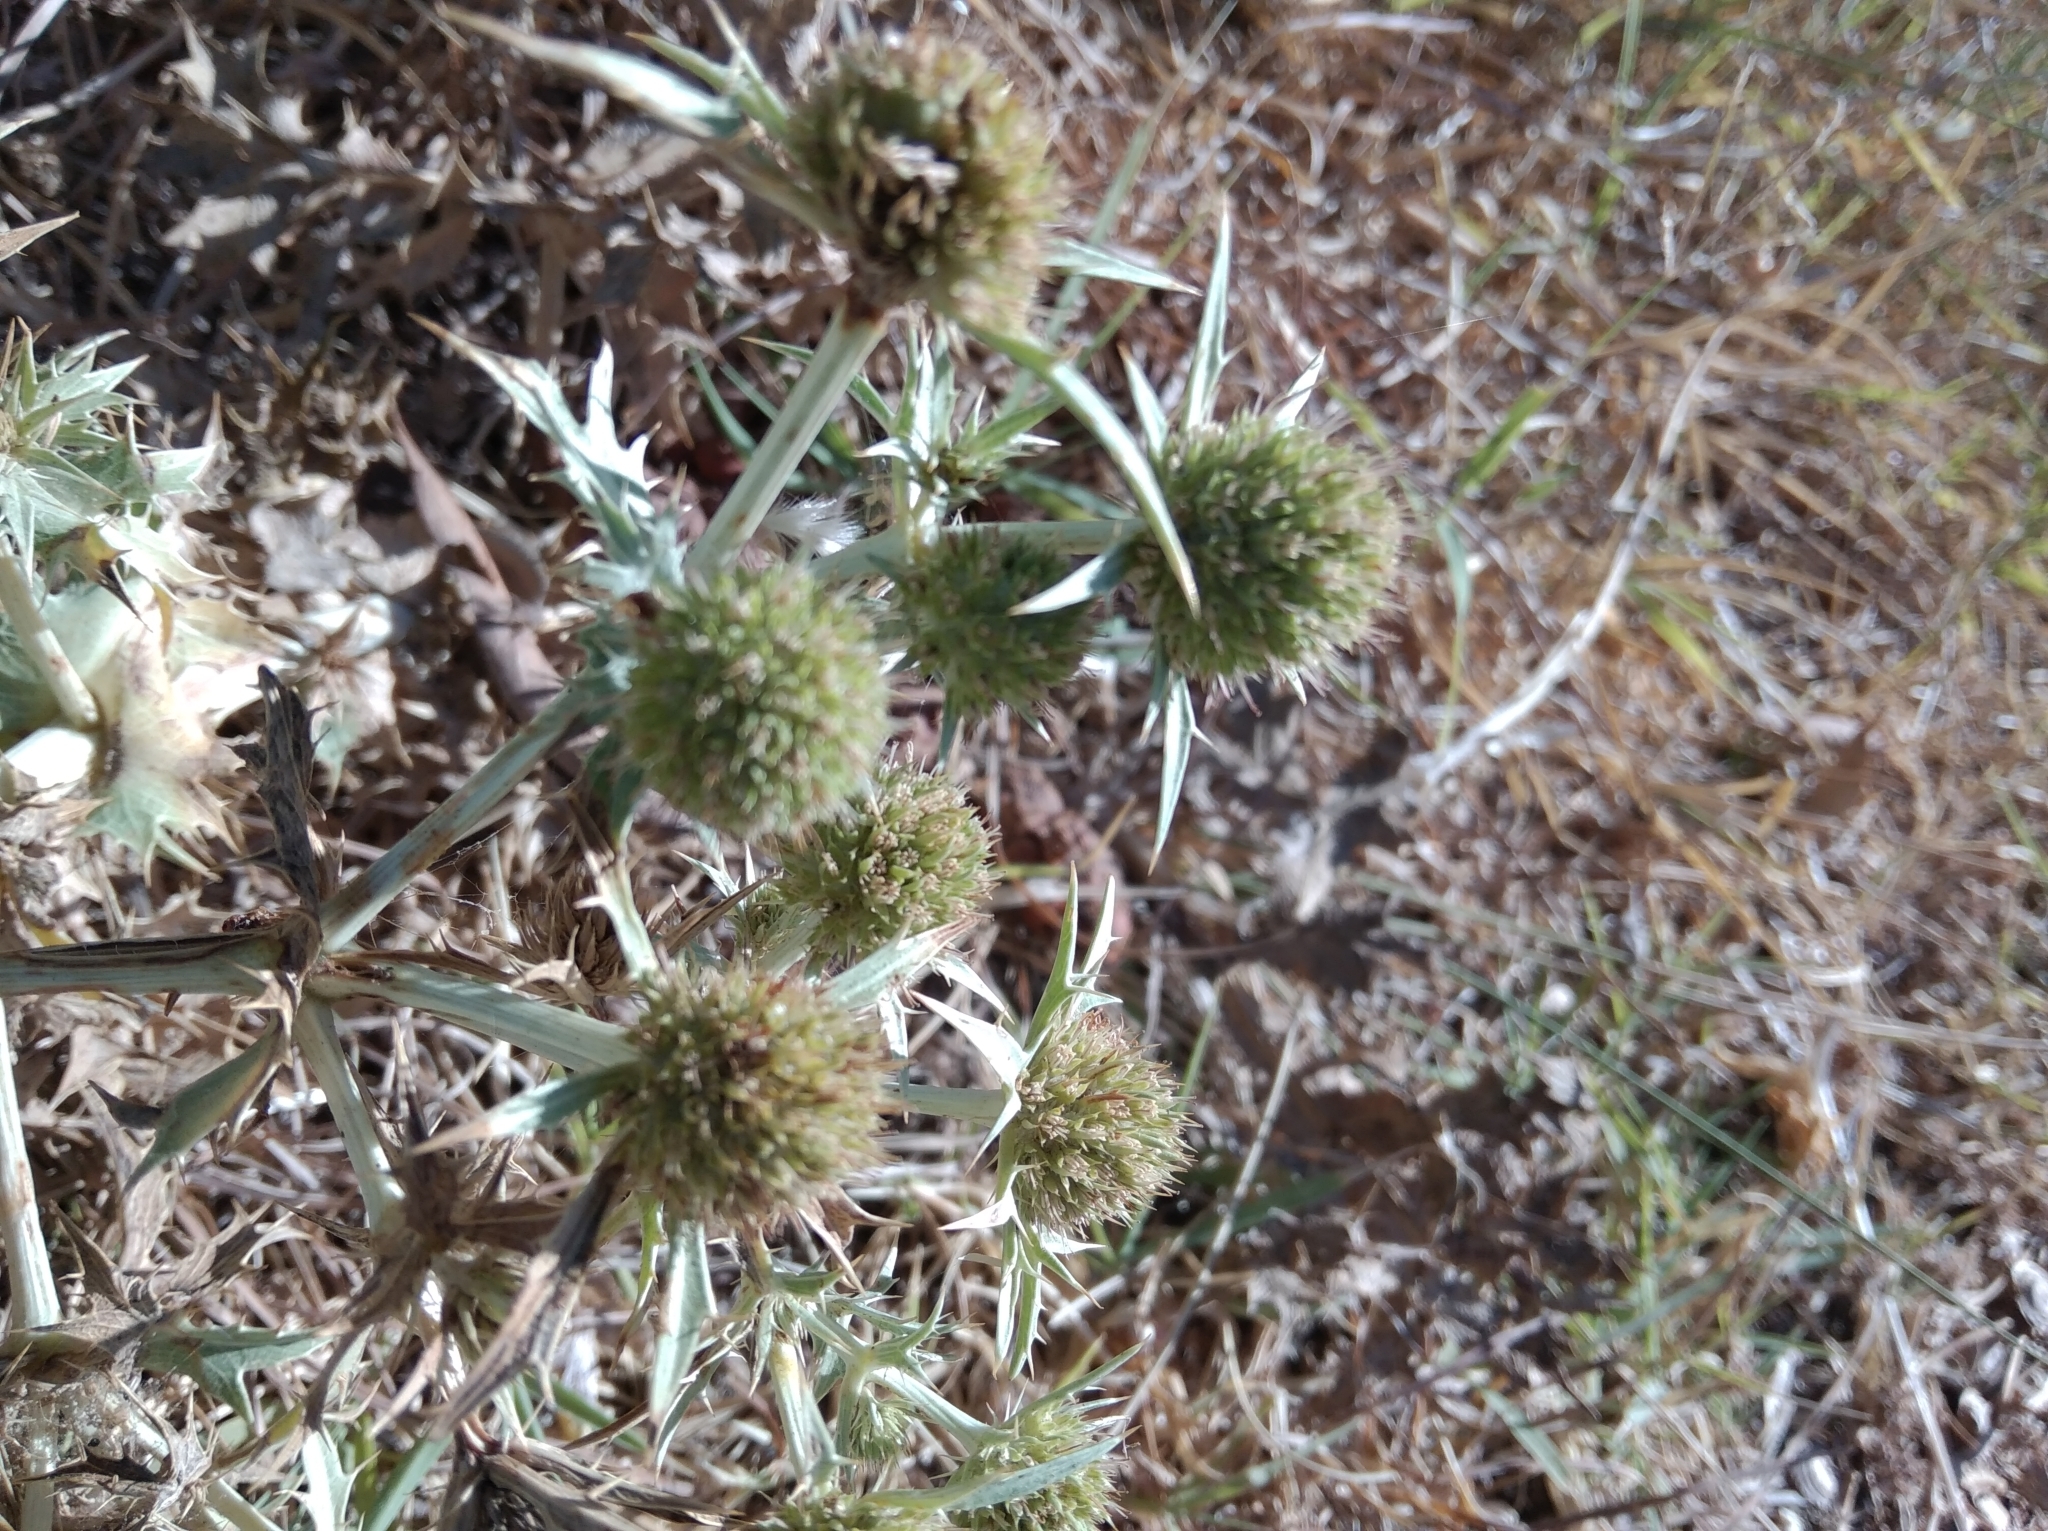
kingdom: Plantae
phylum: Tracheophyta
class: Magnoliopsida
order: Apiales
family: Apiaceae
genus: Eryngium
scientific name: Eryngium campestre
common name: Field eryngo
